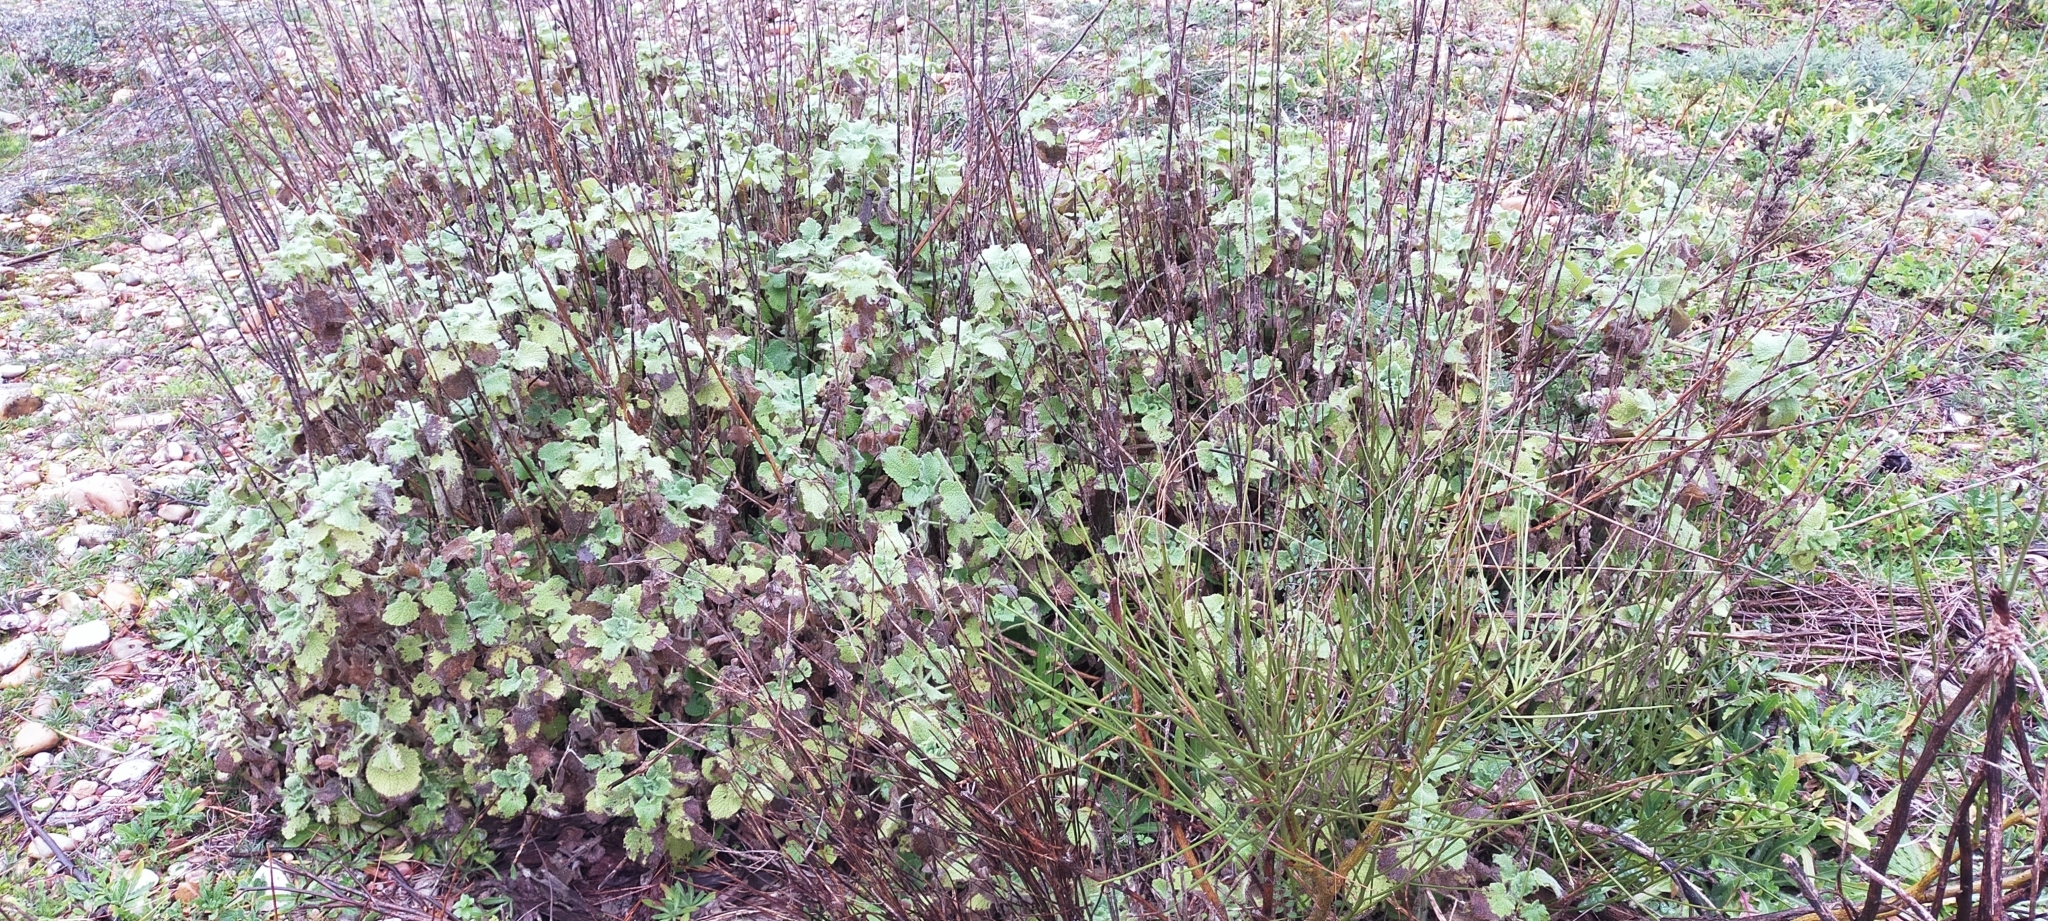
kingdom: Plantae
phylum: Tracheophyta
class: Magnoliopsida
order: Lamiales
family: Lamiaceae
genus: Pseudodictamnus
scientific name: Pseudodictamnus hirsutus
